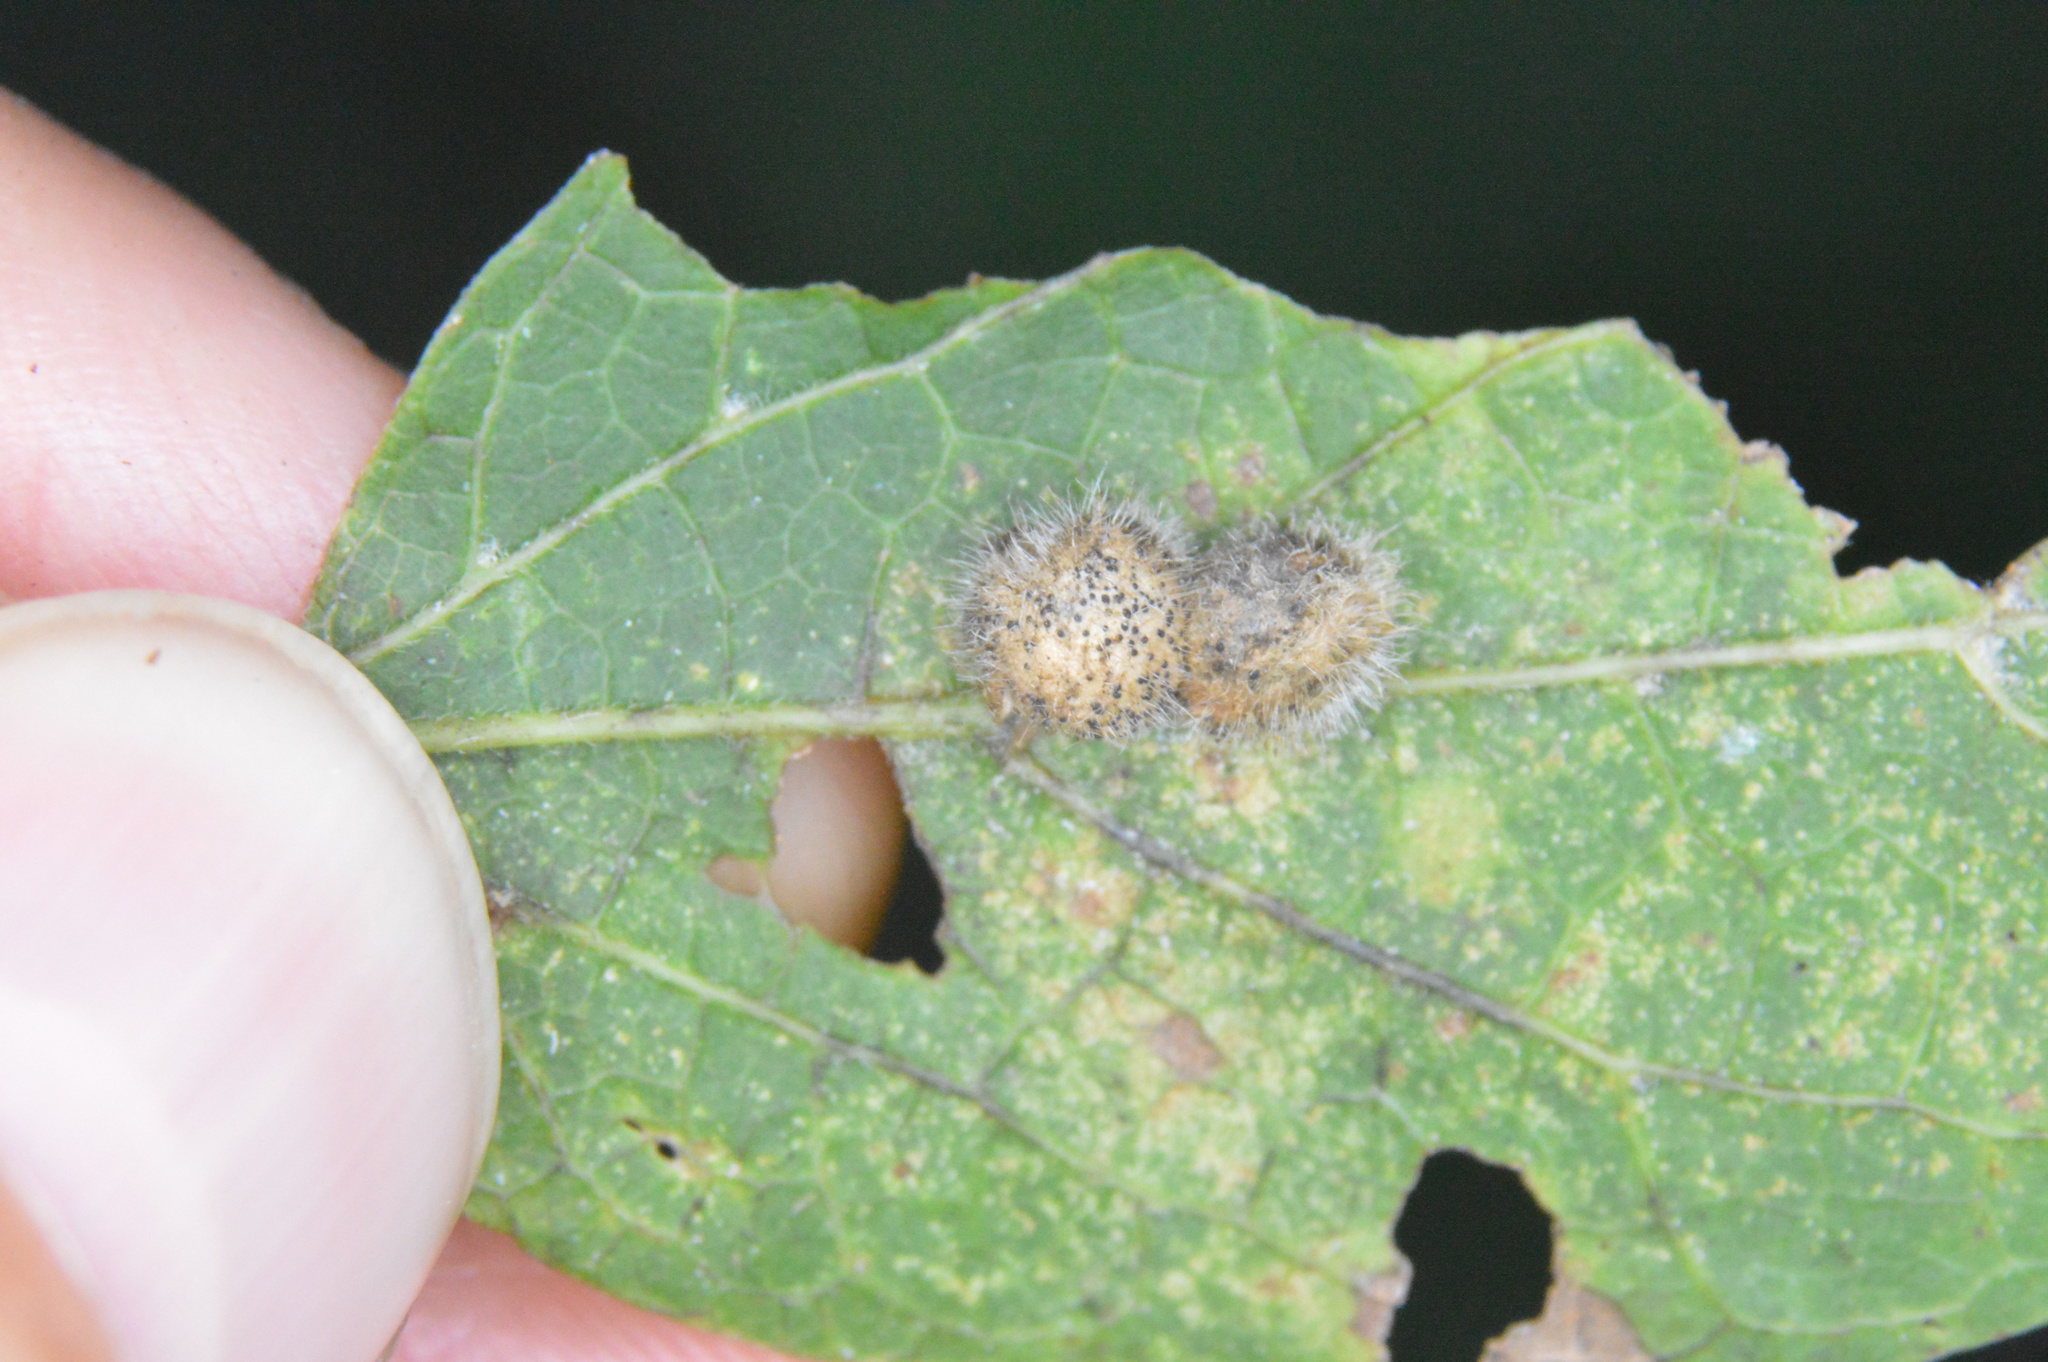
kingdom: Animalia
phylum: Arthropoda
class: Insecta
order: Diptera
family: Cecidomyiidae
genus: Celticecis
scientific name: Celticecis pubescens
